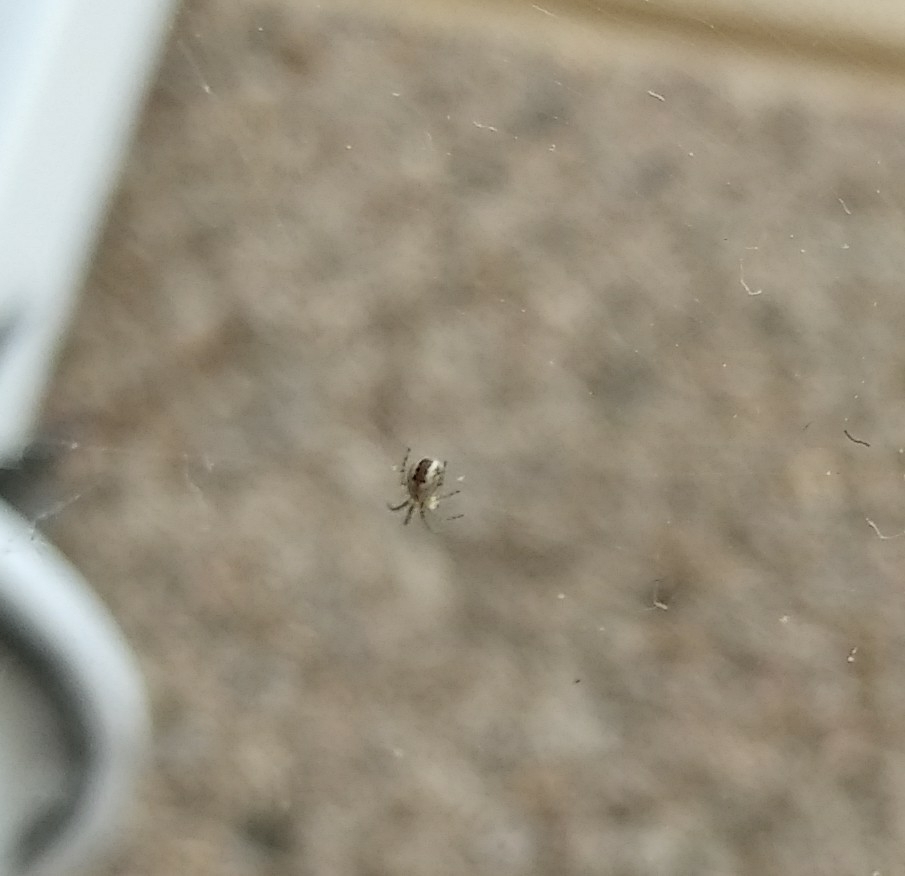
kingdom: Animalia
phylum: Arthropoda
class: Arachnida
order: Araneae
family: Araneidae
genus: Mangora
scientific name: Mangora acalypha
